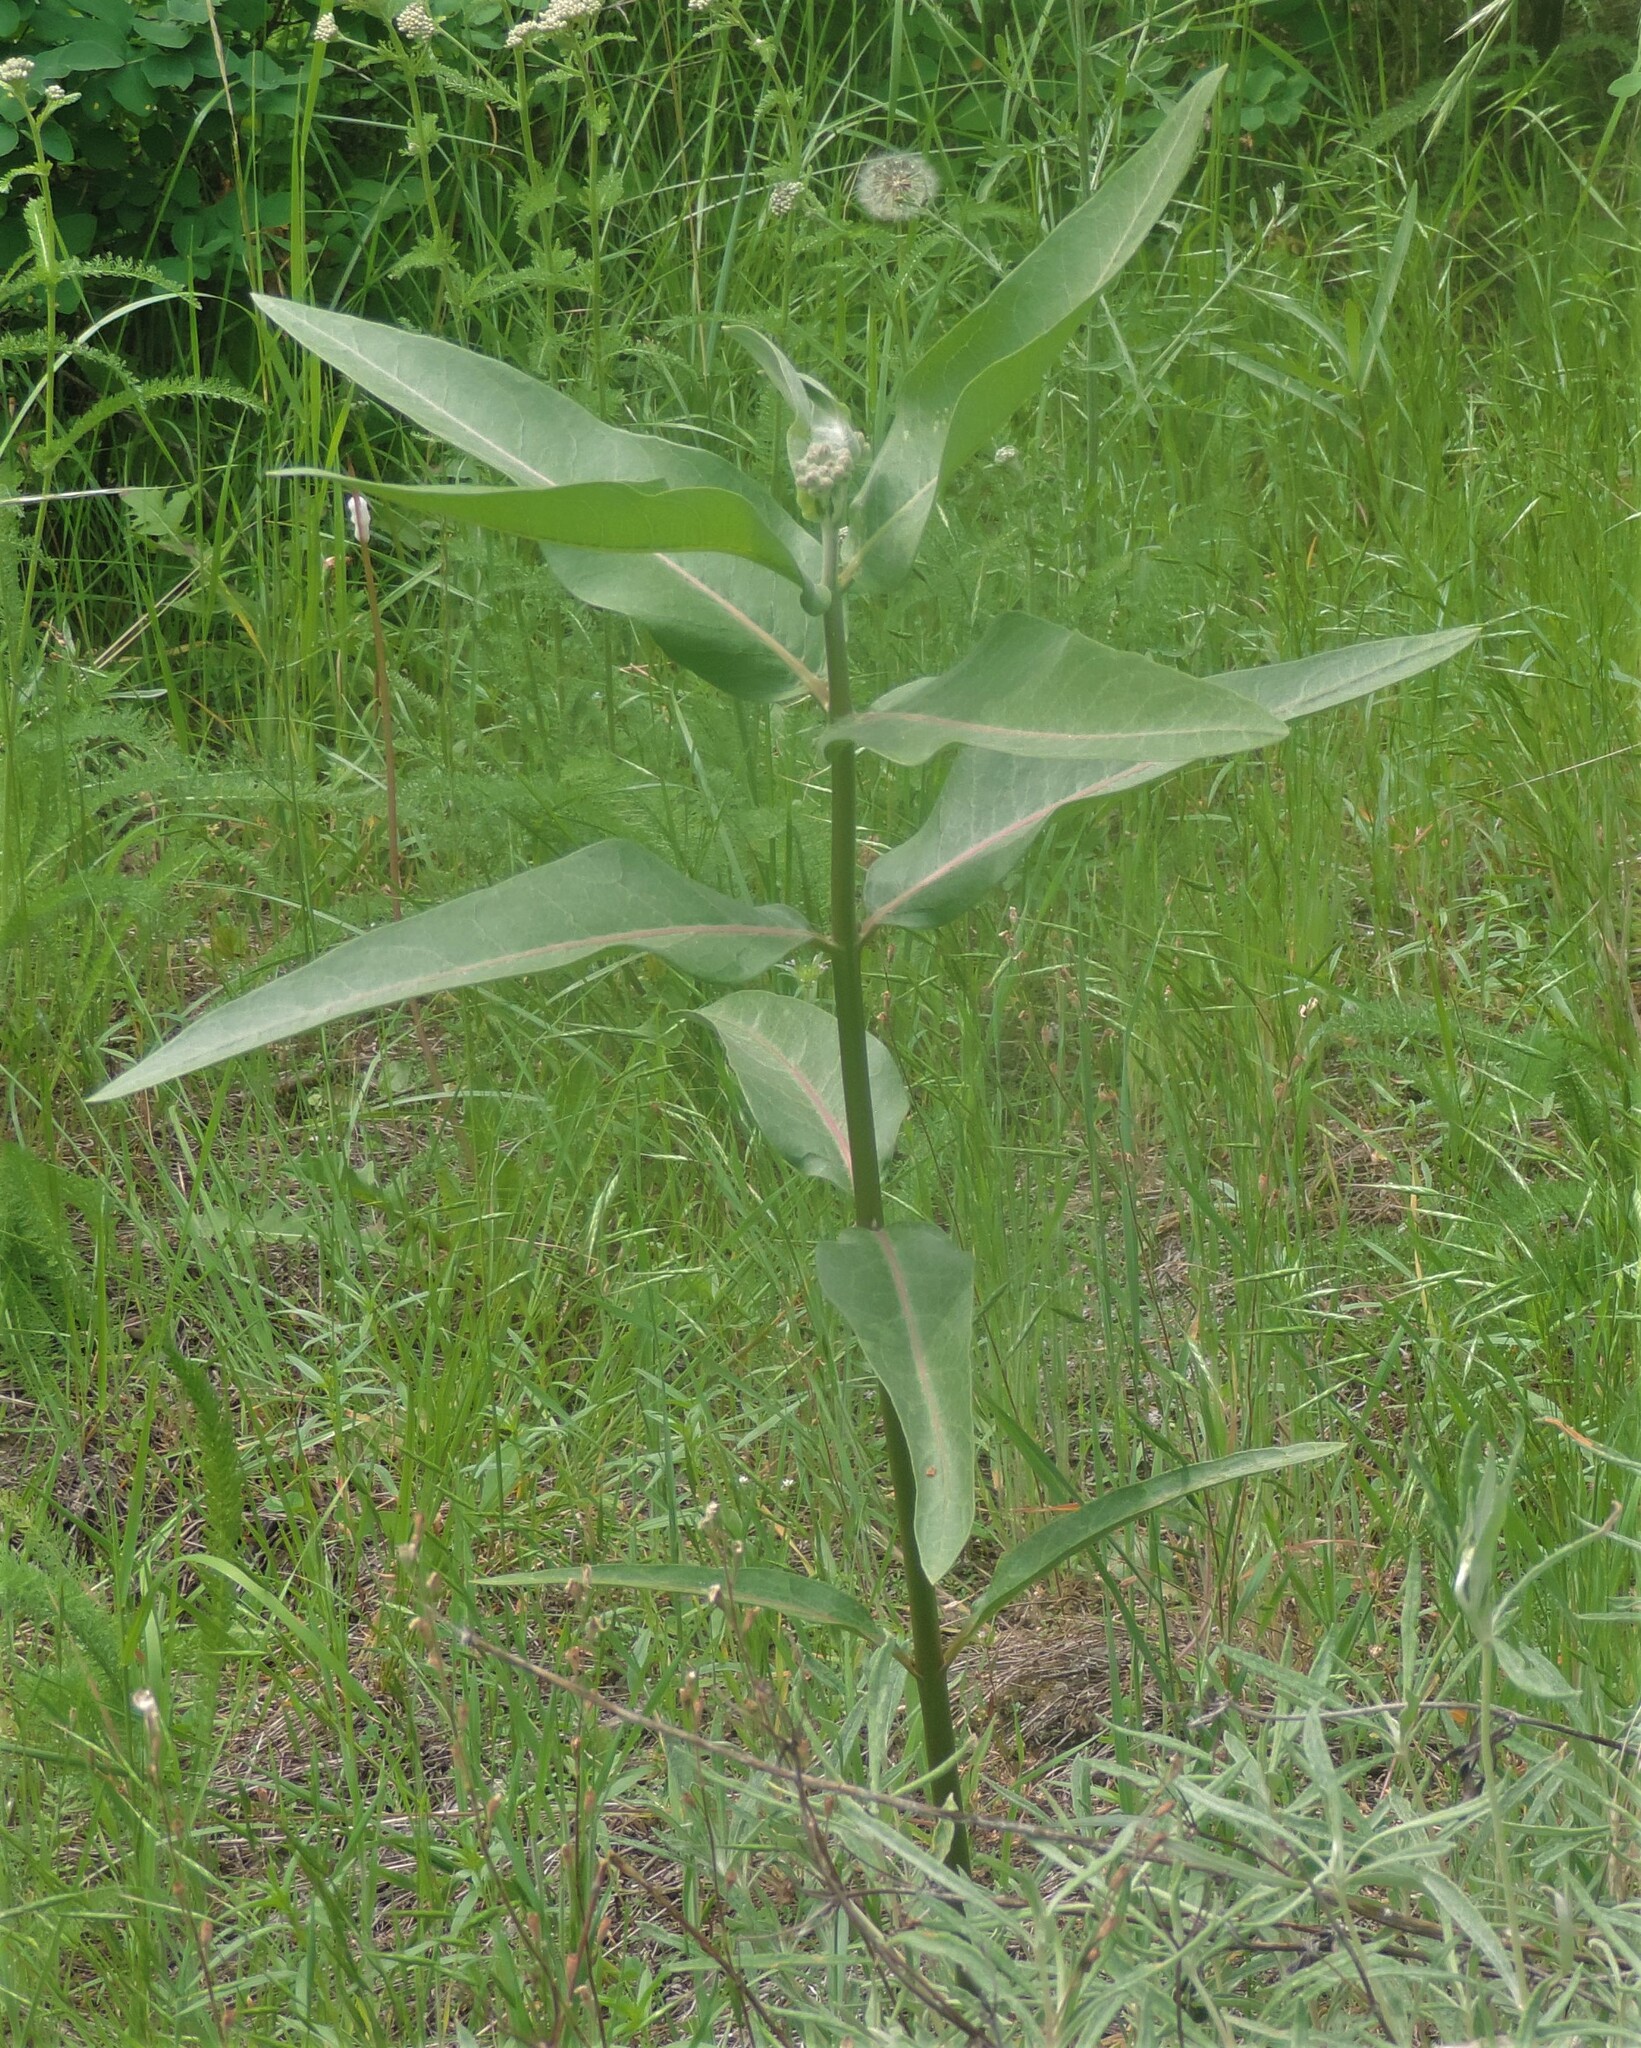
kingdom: Plantae
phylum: Tracheophyta
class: Magnoliopsida
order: Gentianales
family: Apocynaceae
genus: Asclepias
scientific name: Asclepias speciosa
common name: Showy milkweed
